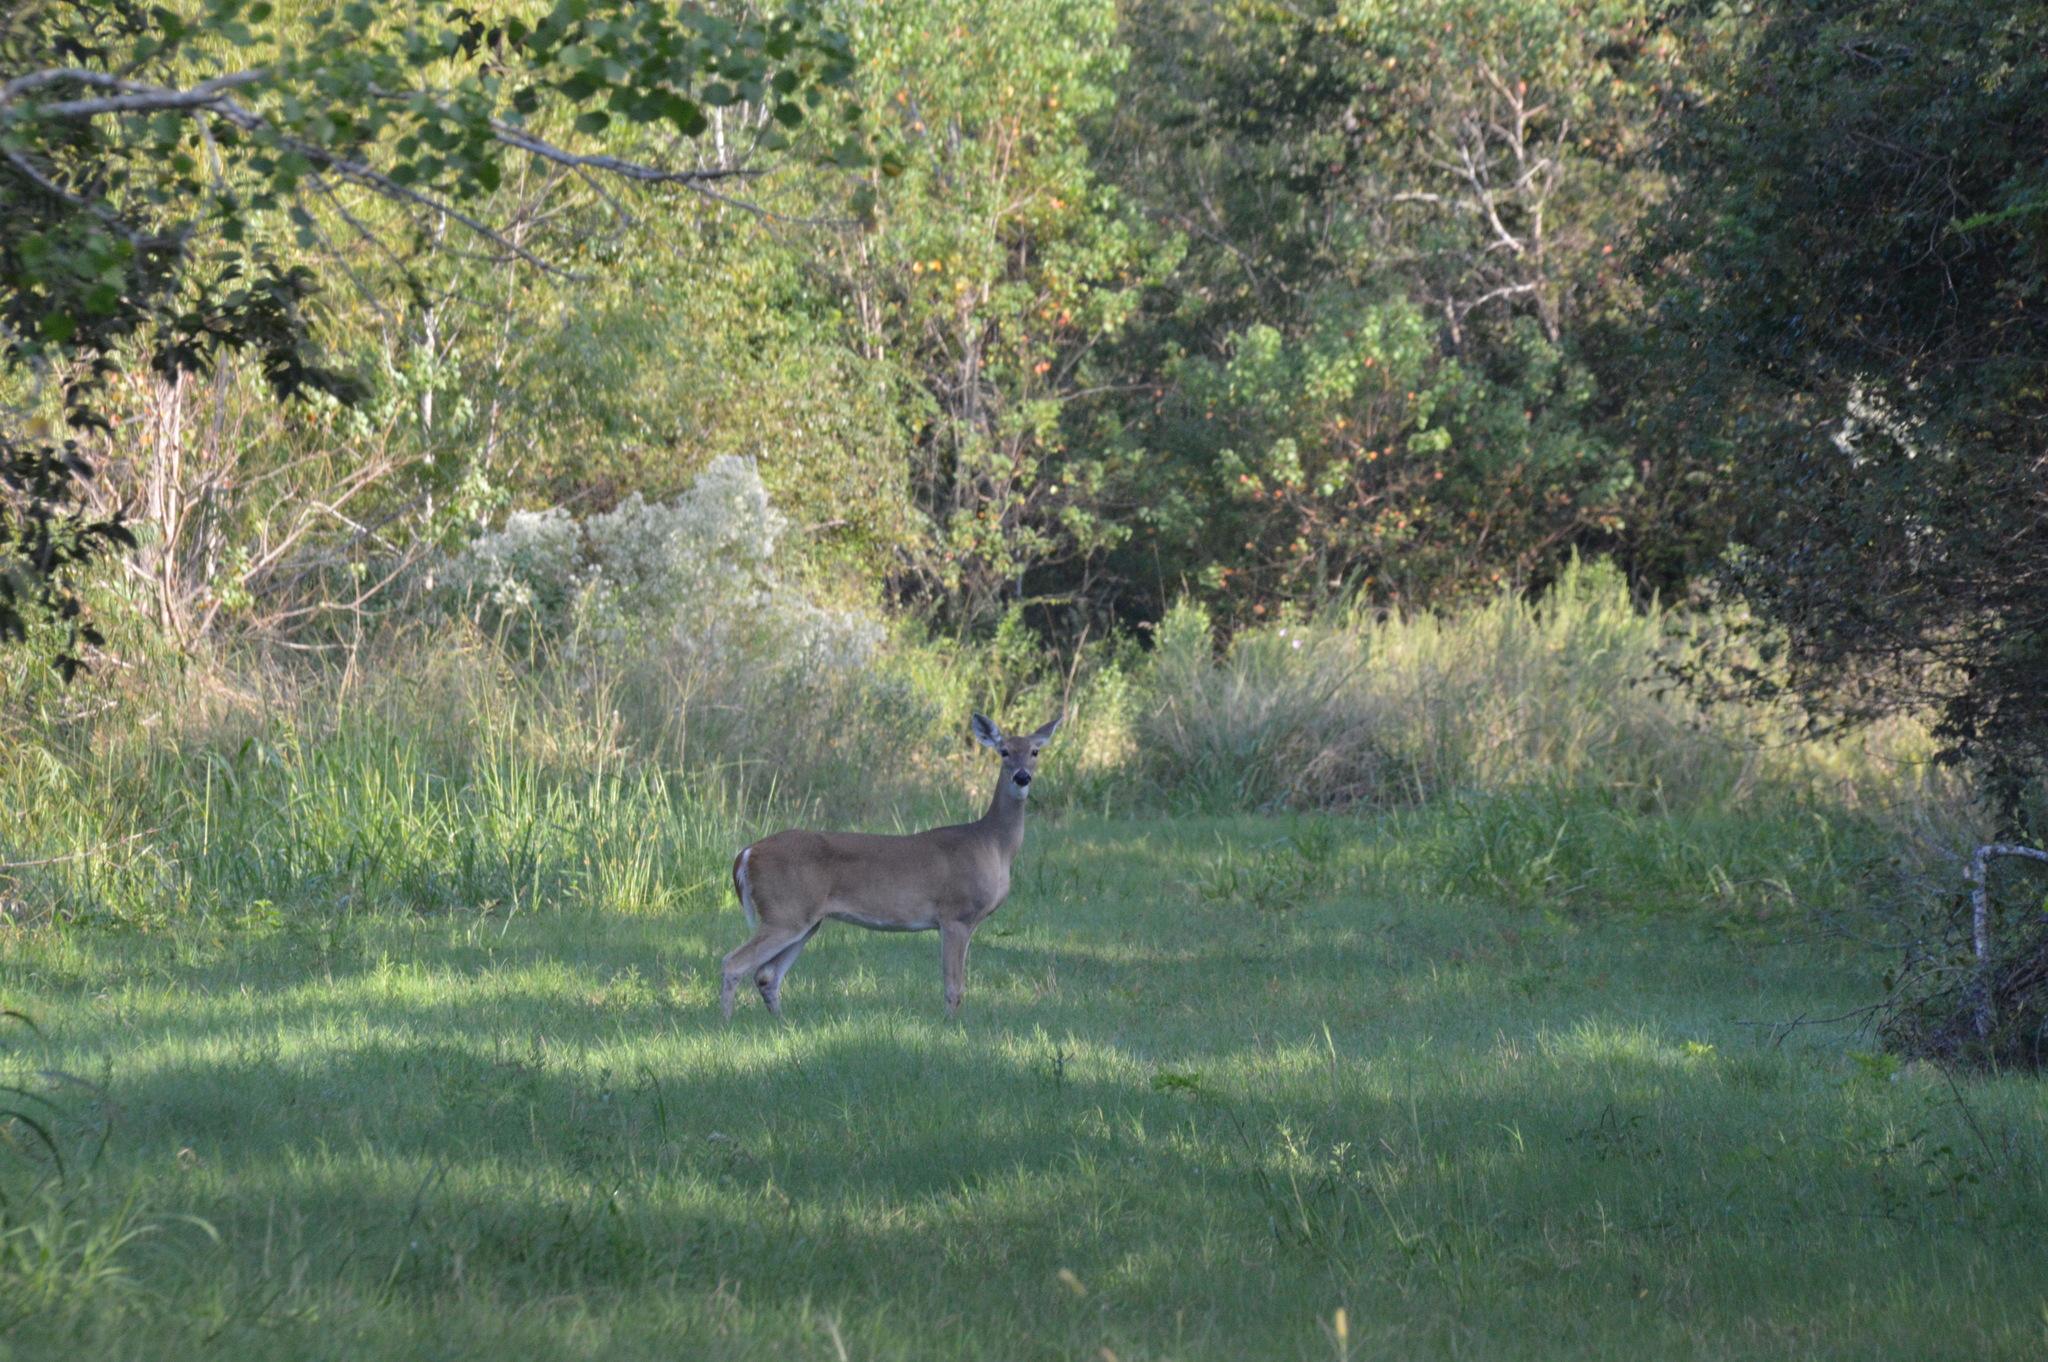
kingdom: Animalia
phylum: Chordata
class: Mammalia
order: Artiodactyla
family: Cervidae
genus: Odocoileus
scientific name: Odocoileus virginianus
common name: White-tailed deer
